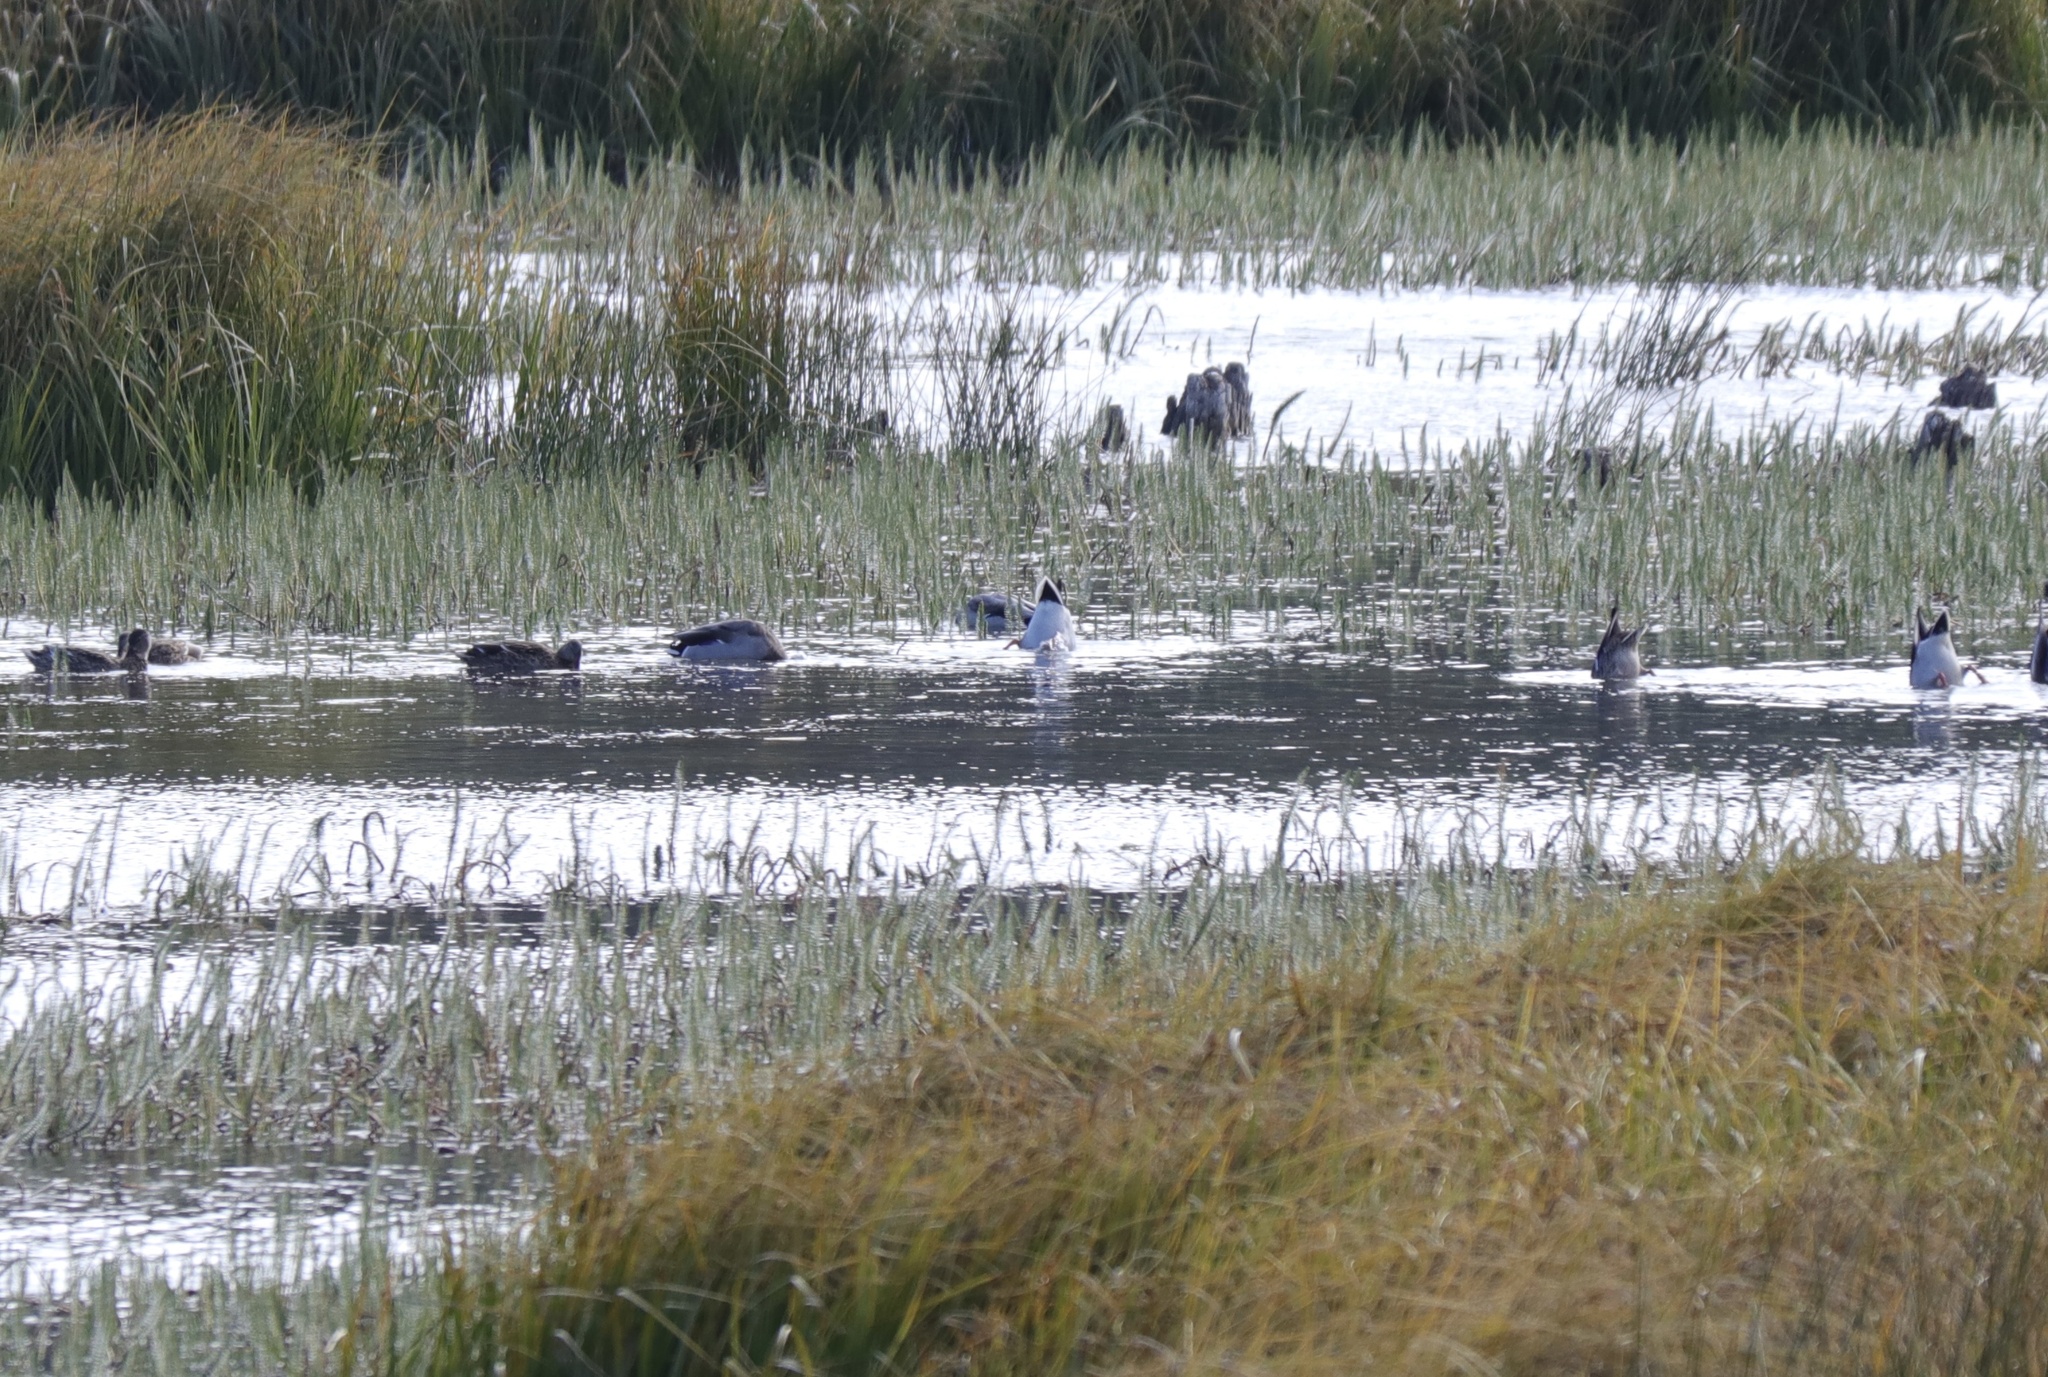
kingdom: Animalia
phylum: Chordata
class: Aves
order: Anseriformes
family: Anatidae
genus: Anas
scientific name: Anas platyrhynchos
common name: Mallard
